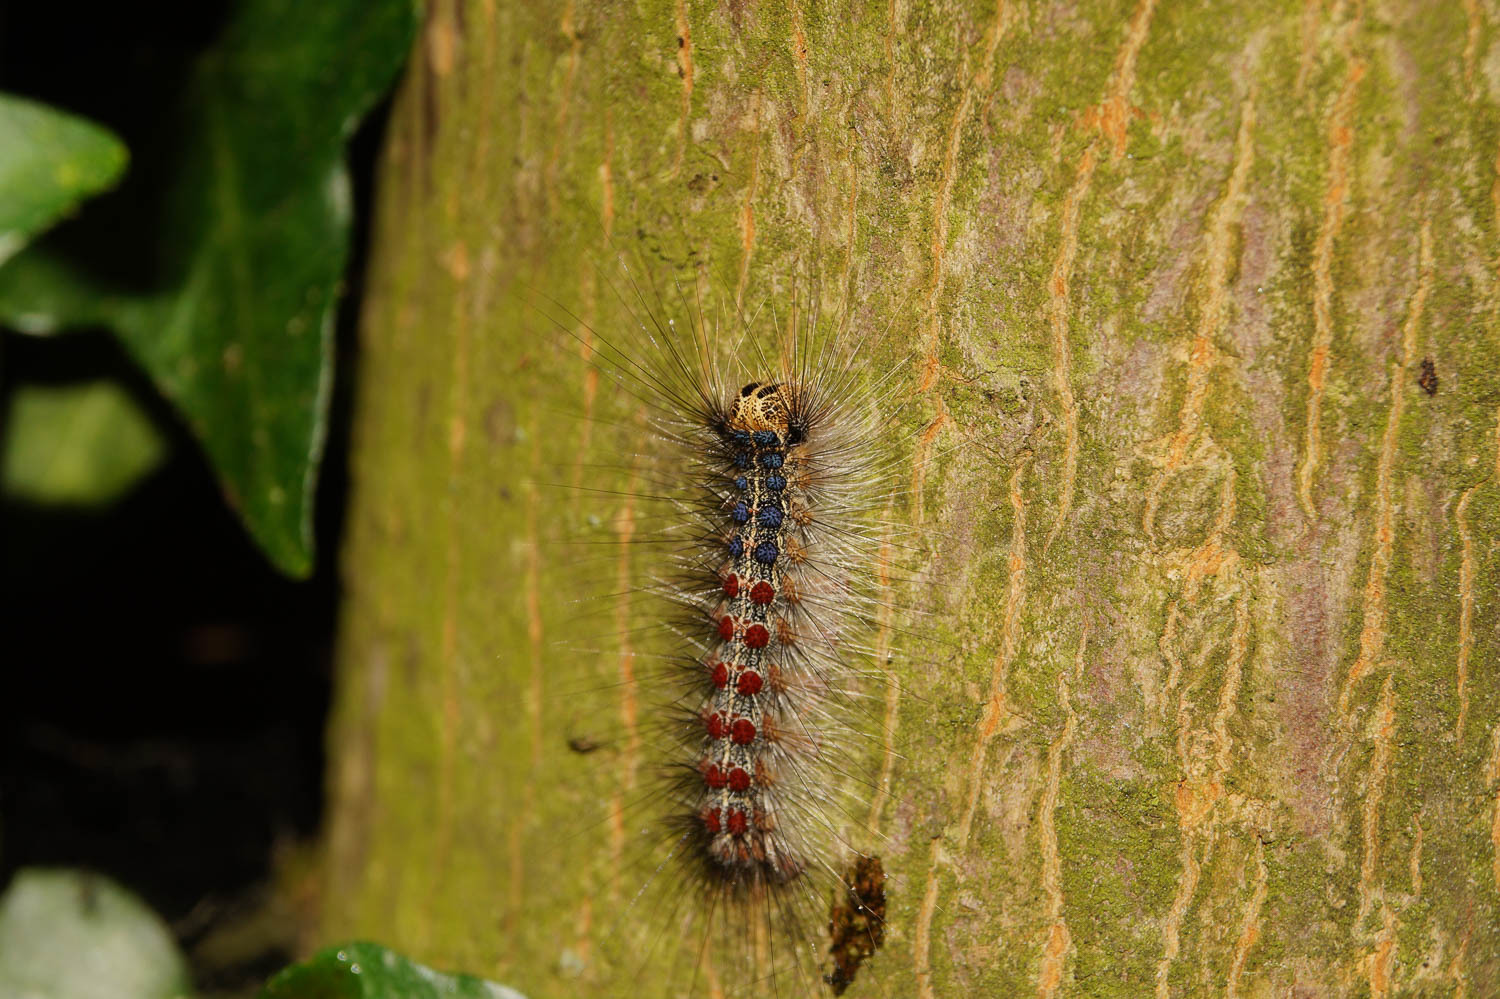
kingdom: Animalia
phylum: Arthropoda
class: Insecta
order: Lepidoptera
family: Erebidae
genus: Lymantria
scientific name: Lymantria dispar
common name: Gypsy moth
